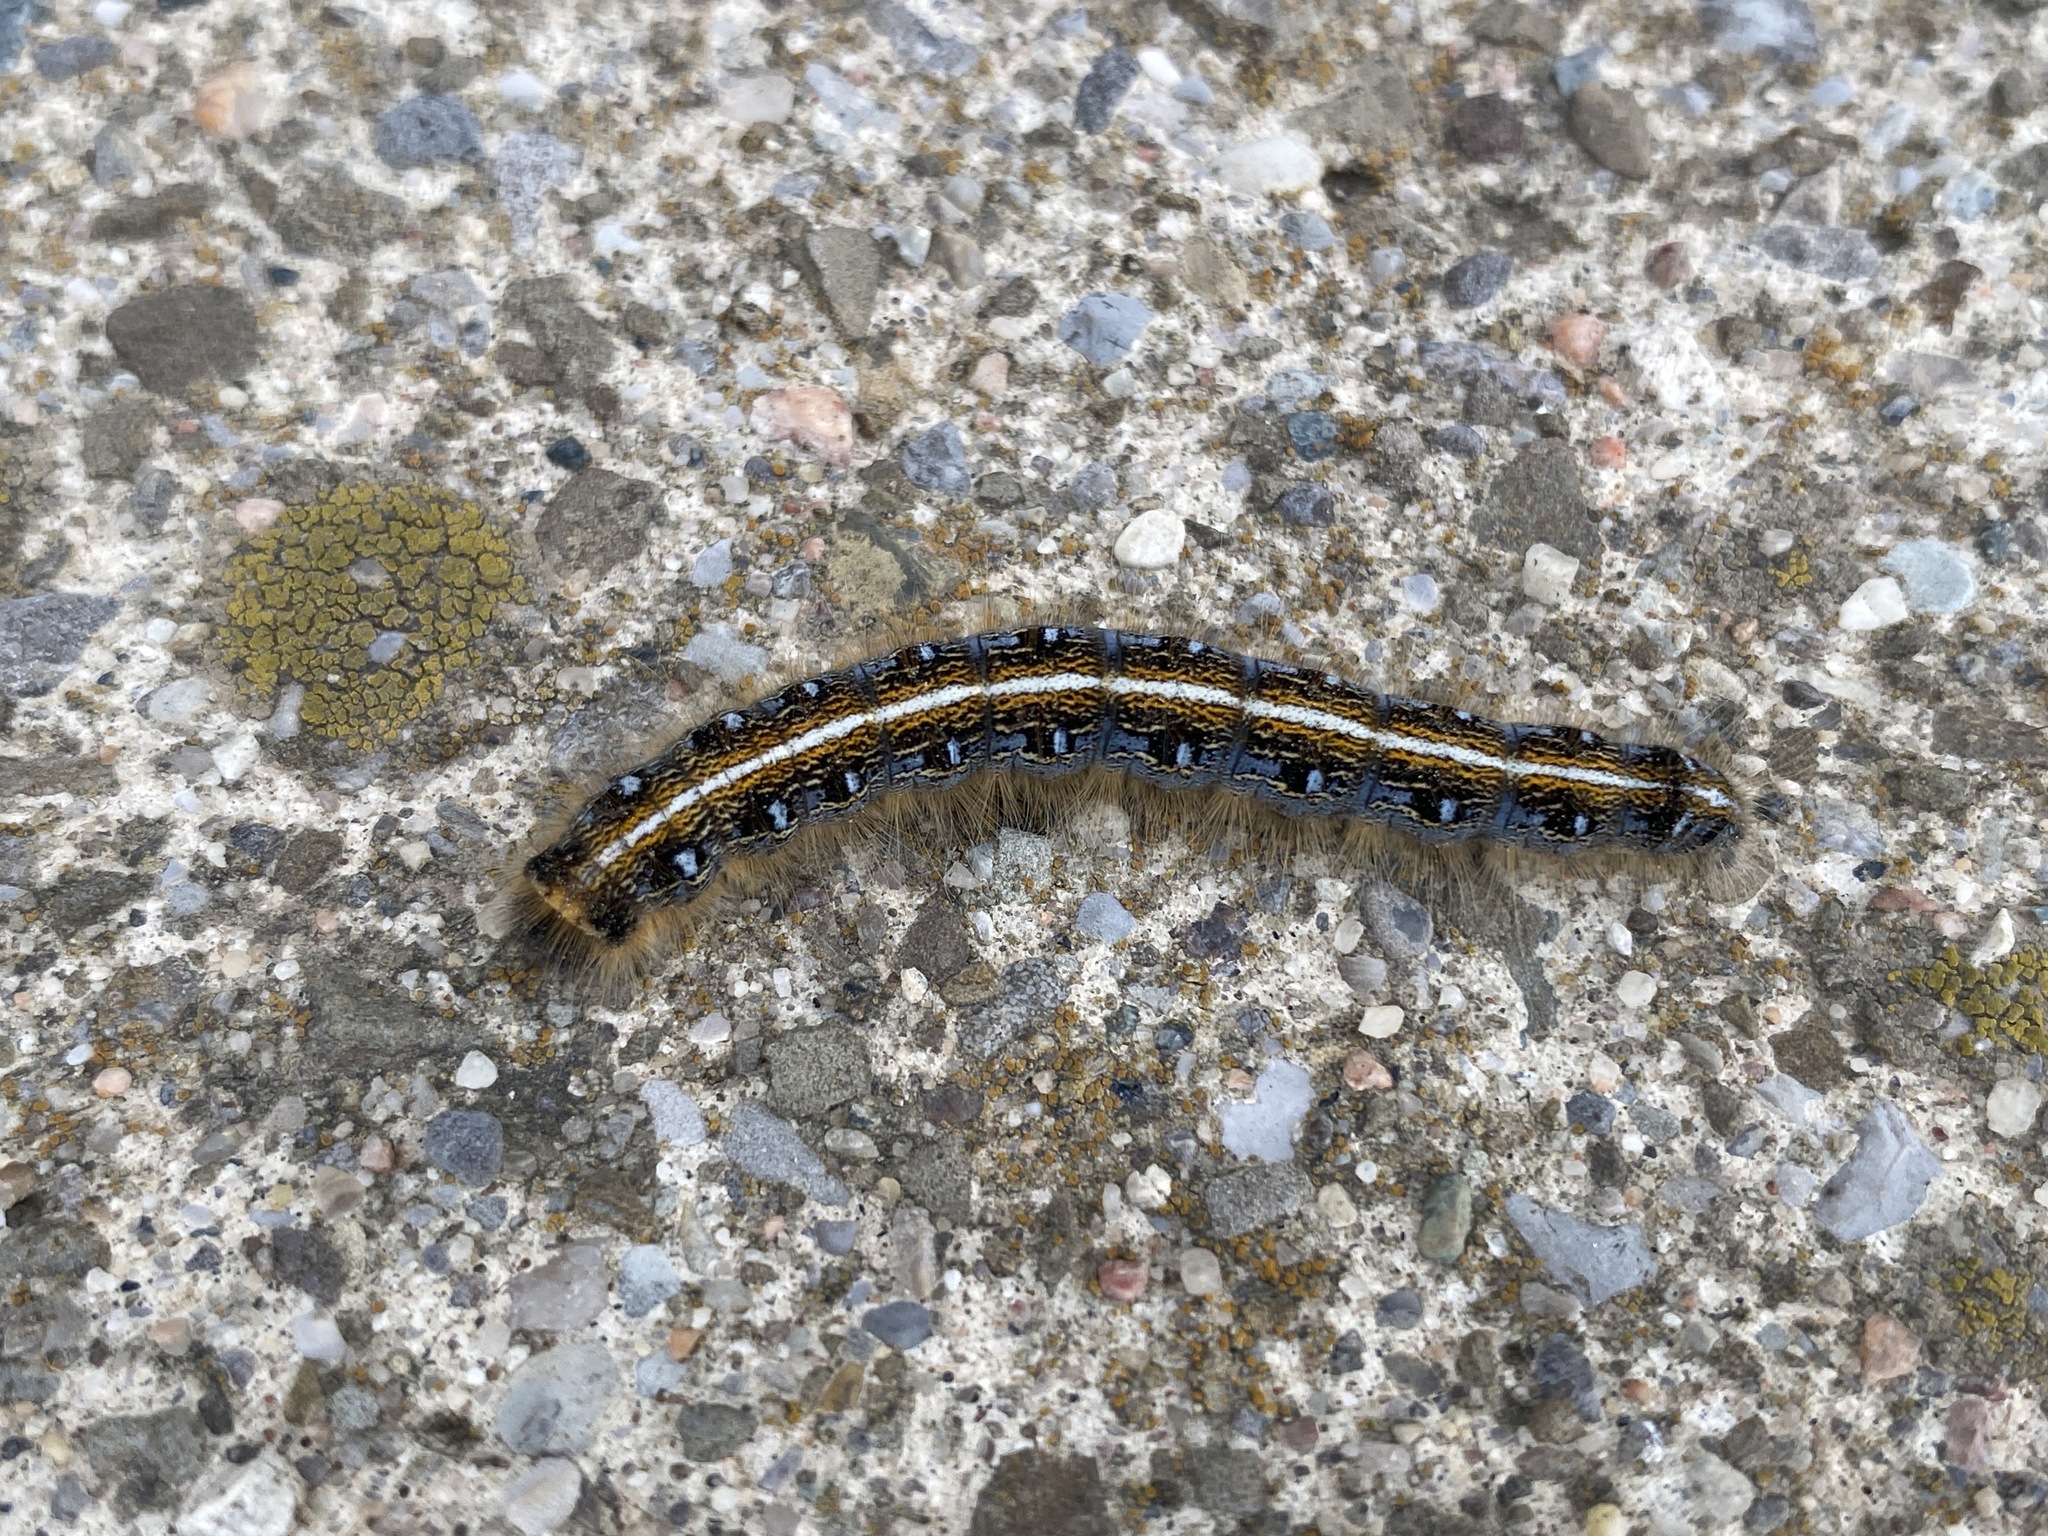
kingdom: Animalia
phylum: Arthropoda
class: Insecta
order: Lepidoptera
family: Lasiocampidae
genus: Malacosoma
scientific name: Malacosoma americana
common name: Eastern tent caterpillar moth
